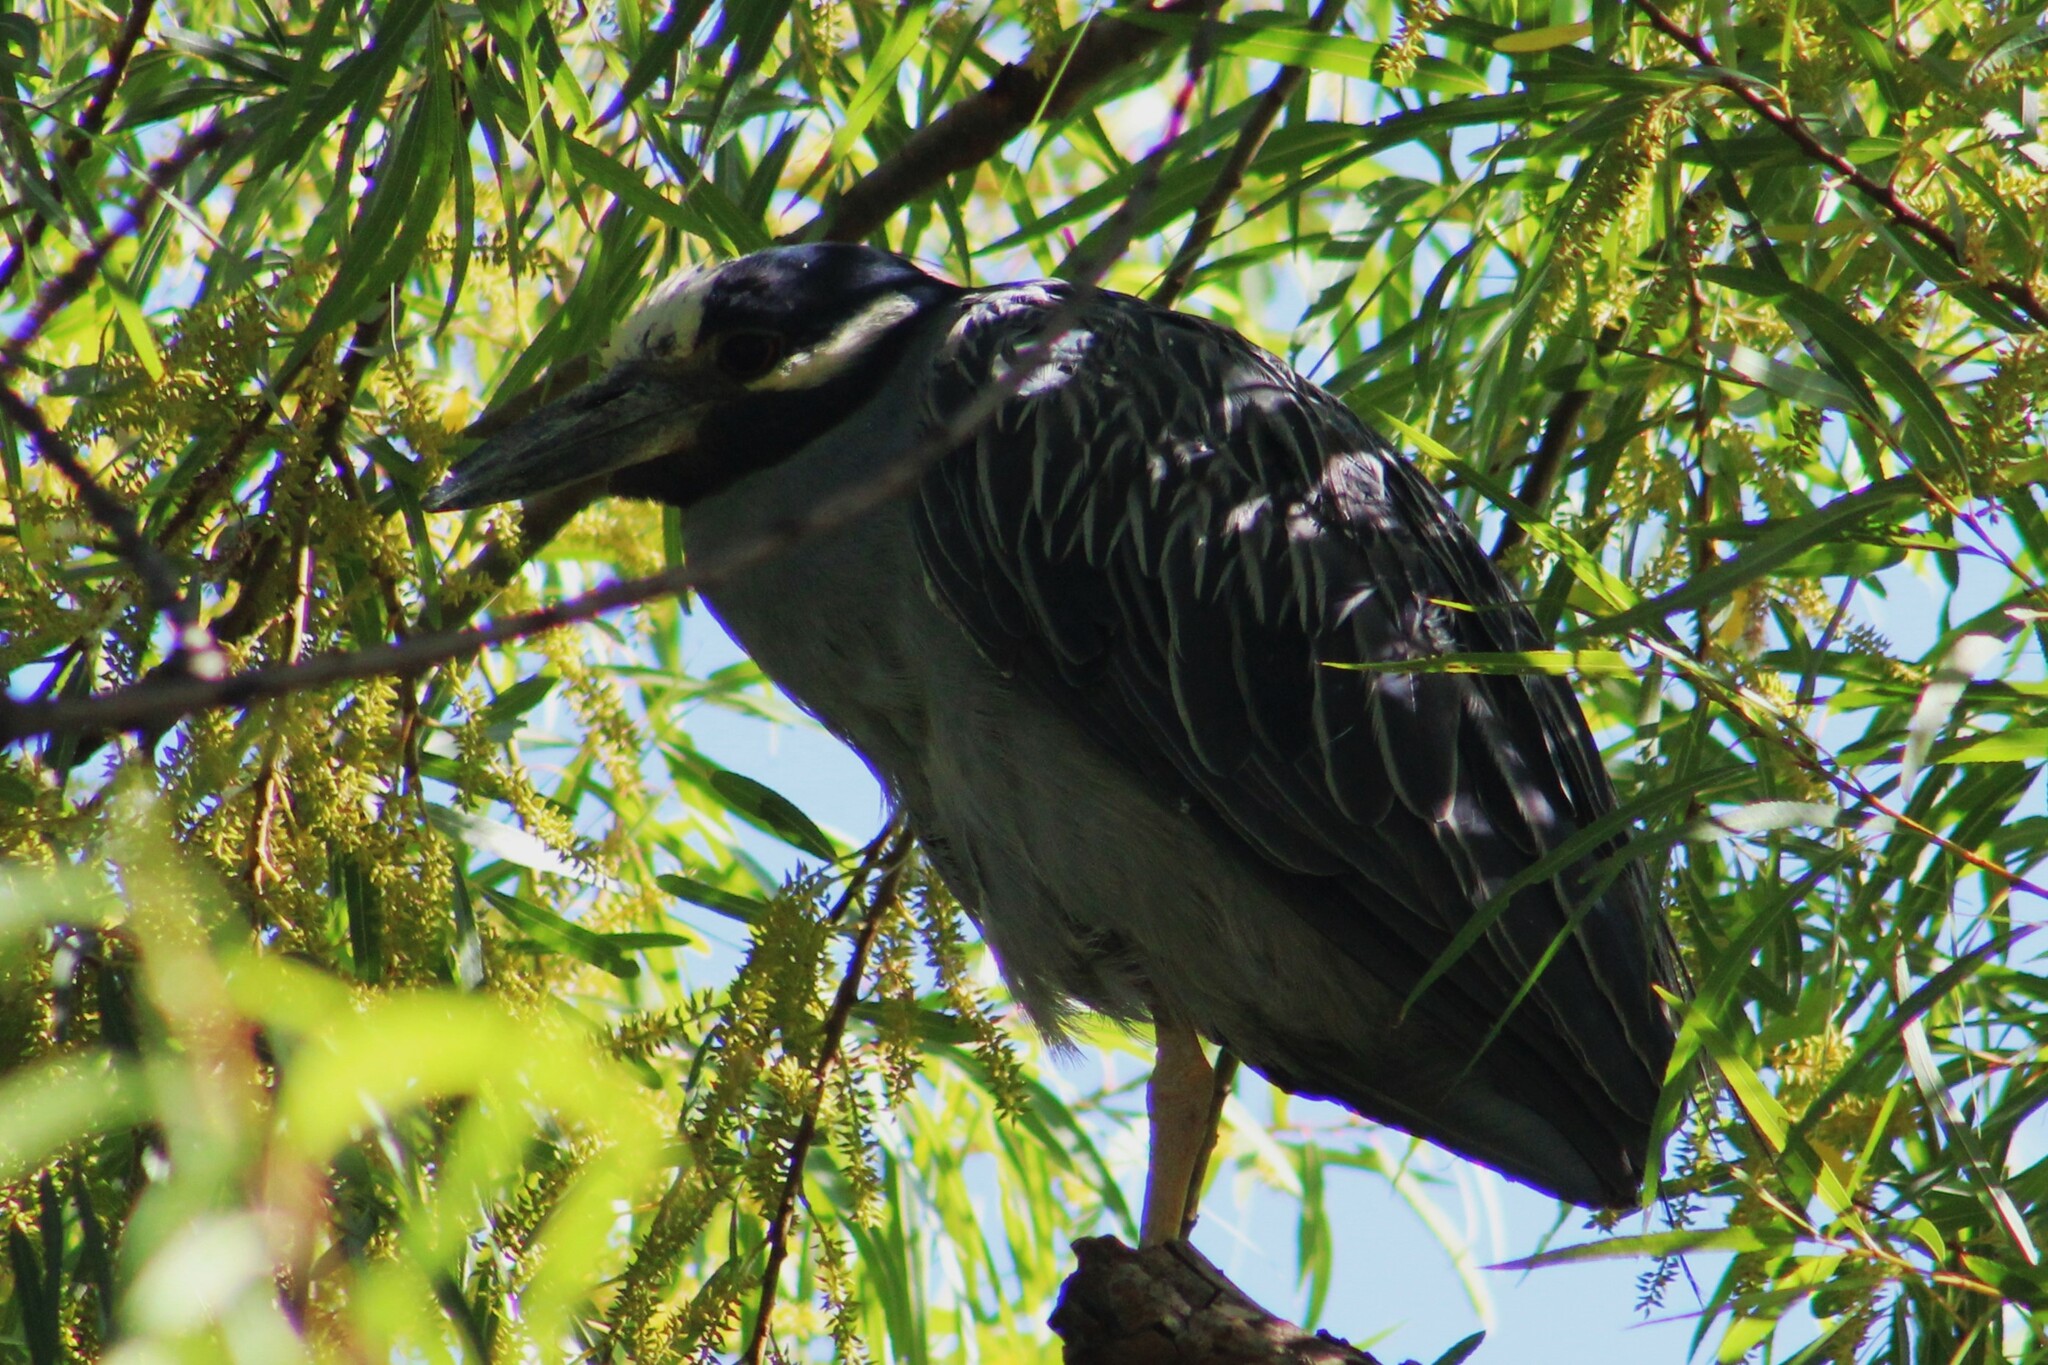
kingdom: Animalia
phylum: Chordata
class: Aves
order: Pelecaniformes
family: Ardeidae
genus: Nyctanassa
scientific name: Nyctanassa violacea
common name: Yellow-crowned night heron
